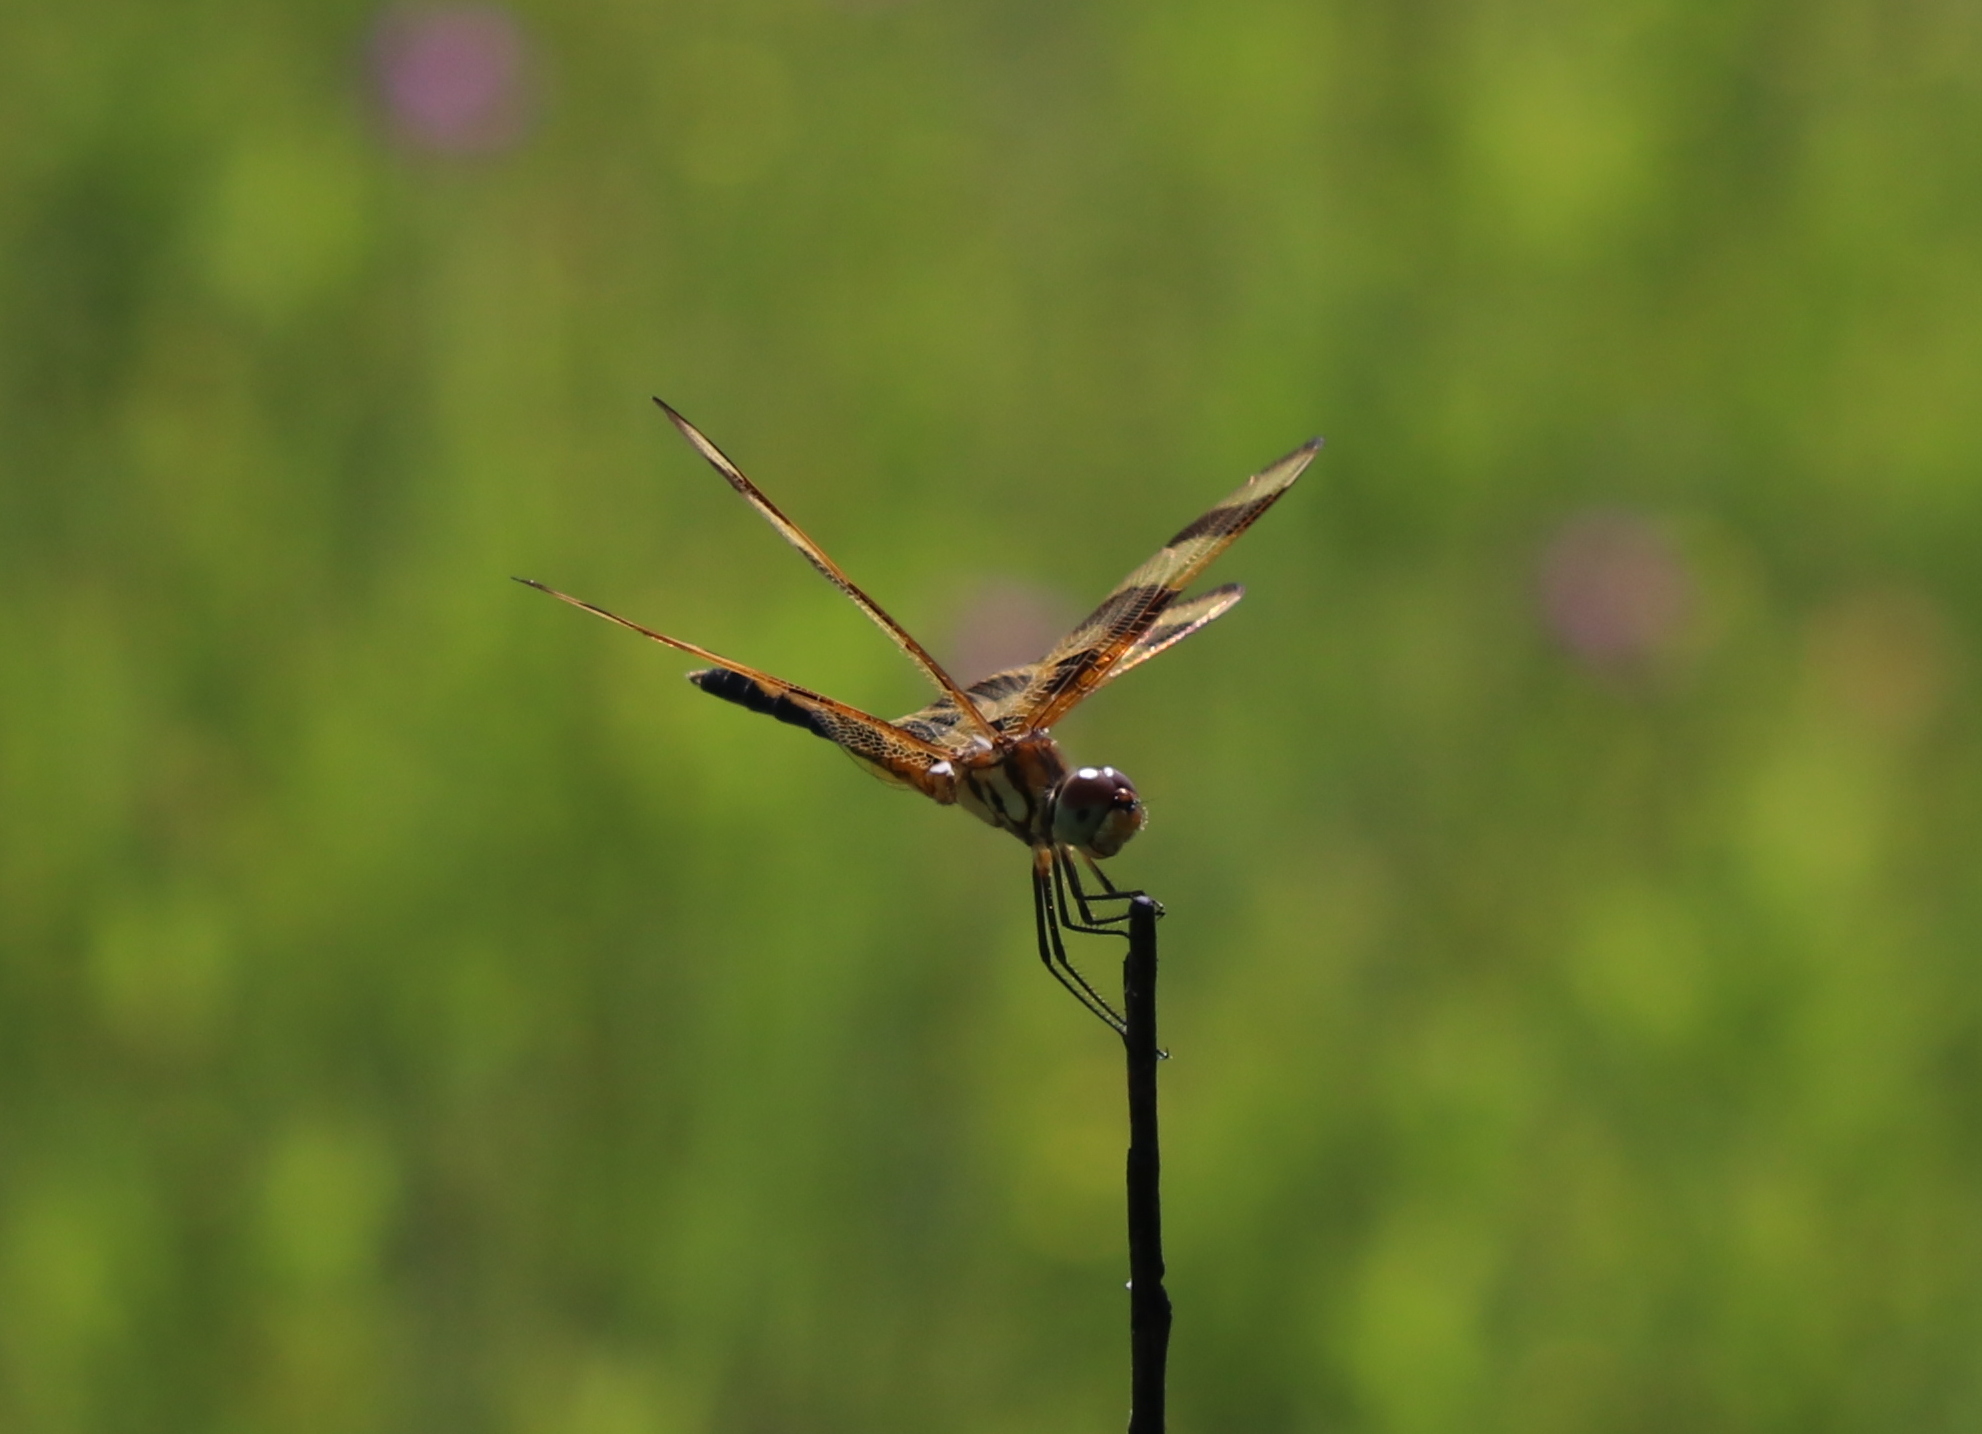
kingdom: Animalia
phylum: Arthropoda
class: Insecta
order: Odonata
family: Libellulidae
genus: Celithemis
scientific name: Celithemis eponina
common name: Halloween pennant
